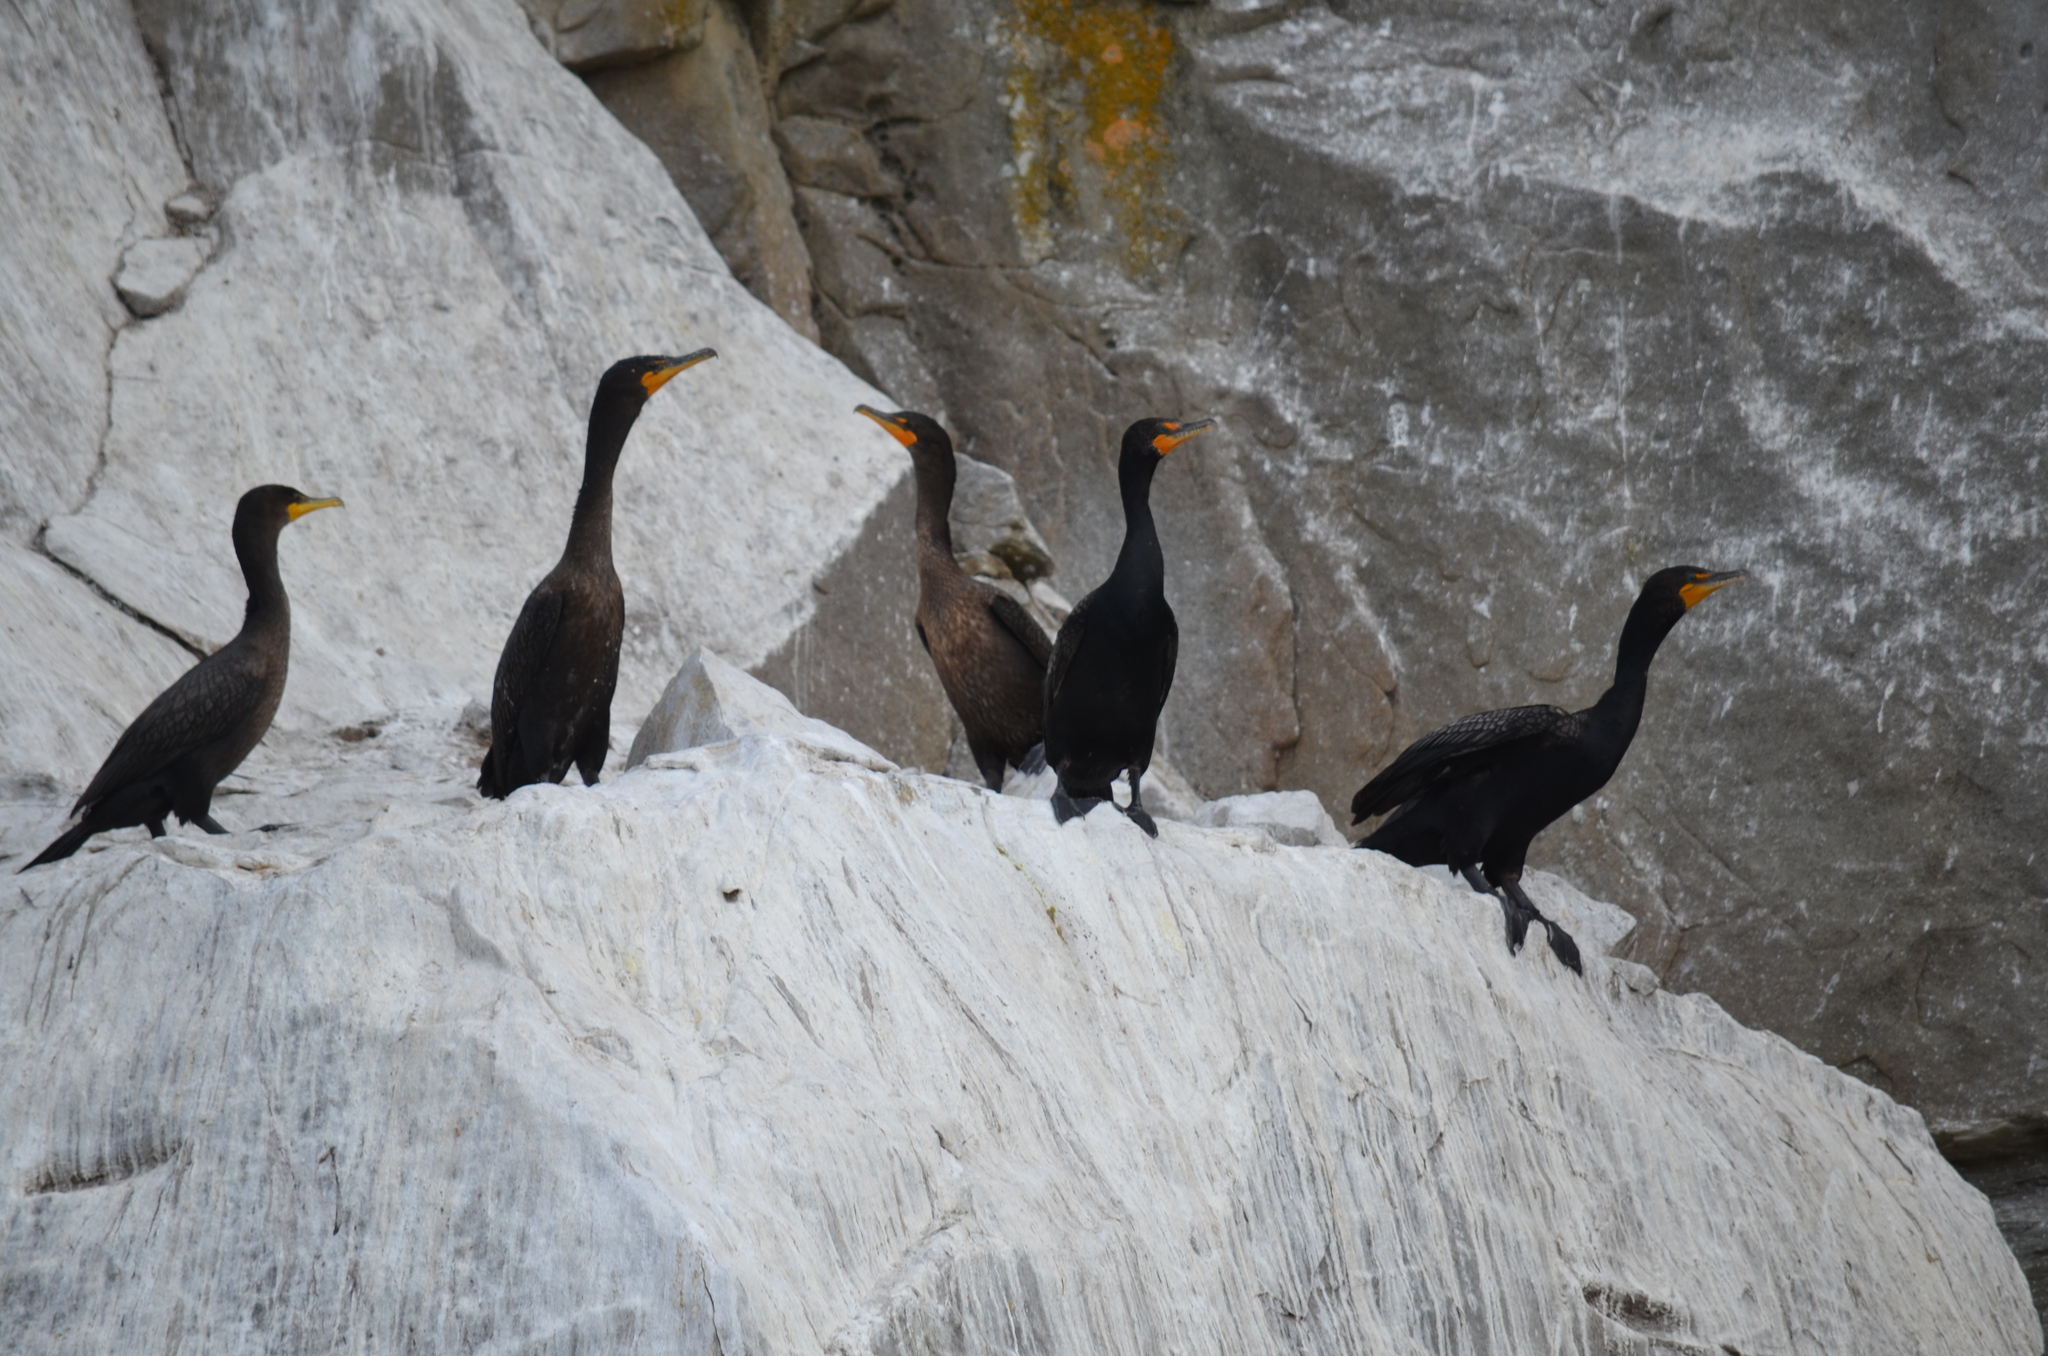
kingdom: Animalia
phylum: Chordata
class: Aves
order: Suliformes
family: Phalacrocoracidae
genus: Phalacrocorax
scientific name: Phalacrocorax auritus
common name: Double-crested cormorant
